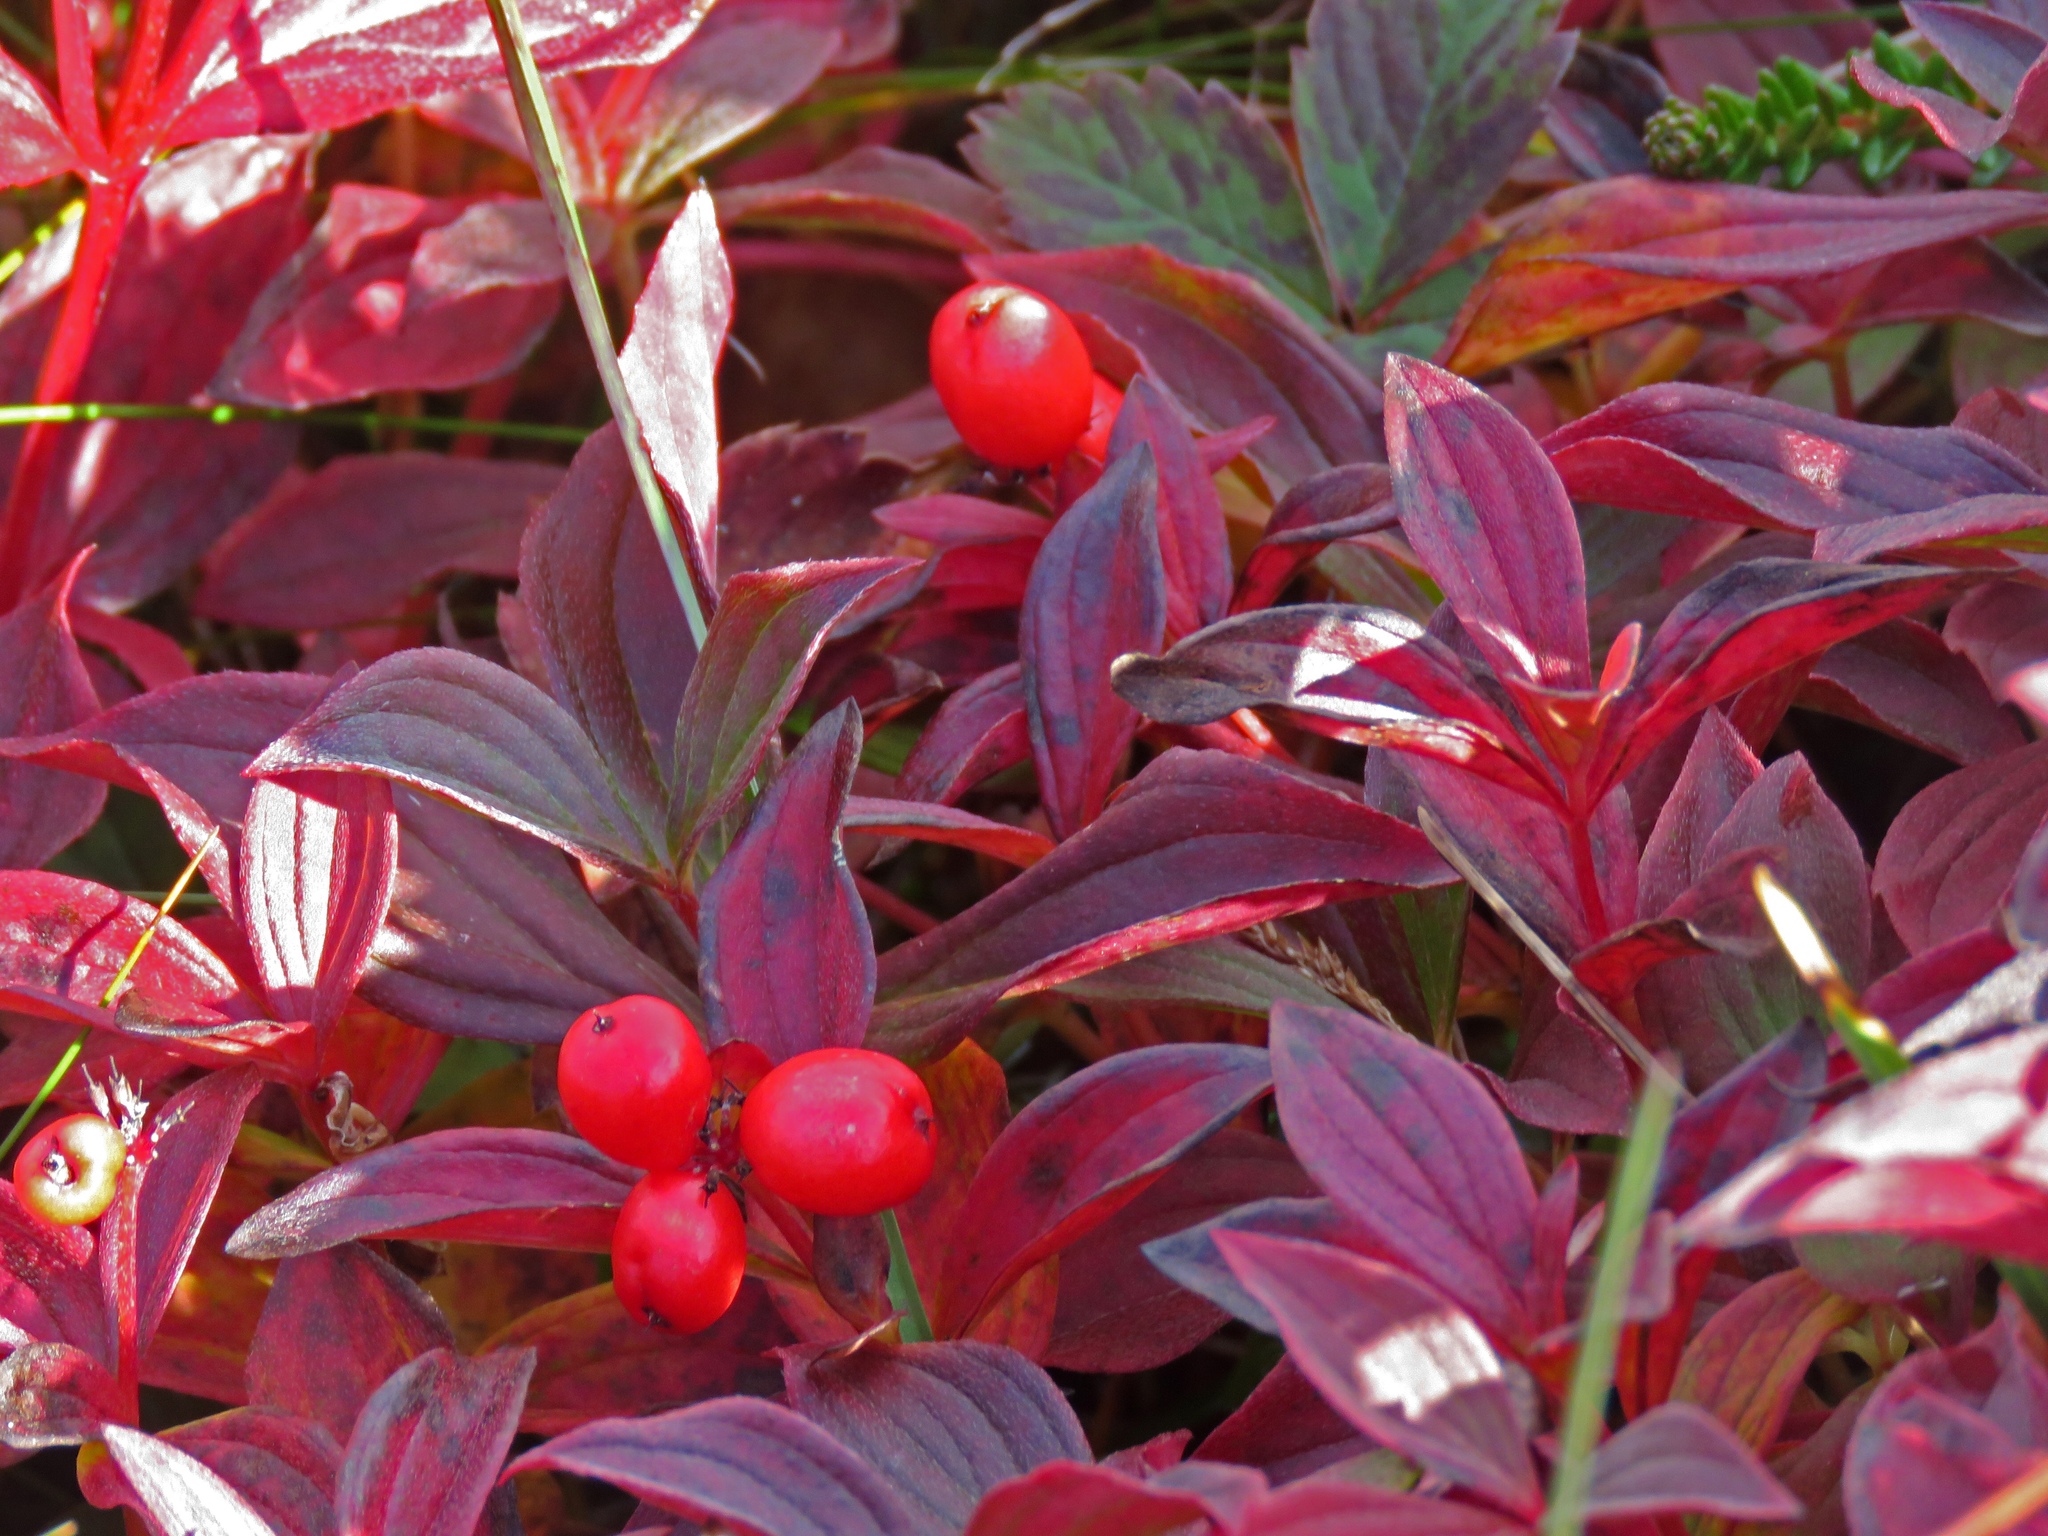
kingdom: Plantae
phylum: Tracheophyta
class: Magnoliopsida
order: Cornales
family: Cornaceae
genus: Cornus
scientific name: Cornus suecica
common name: Dwarf cornel
